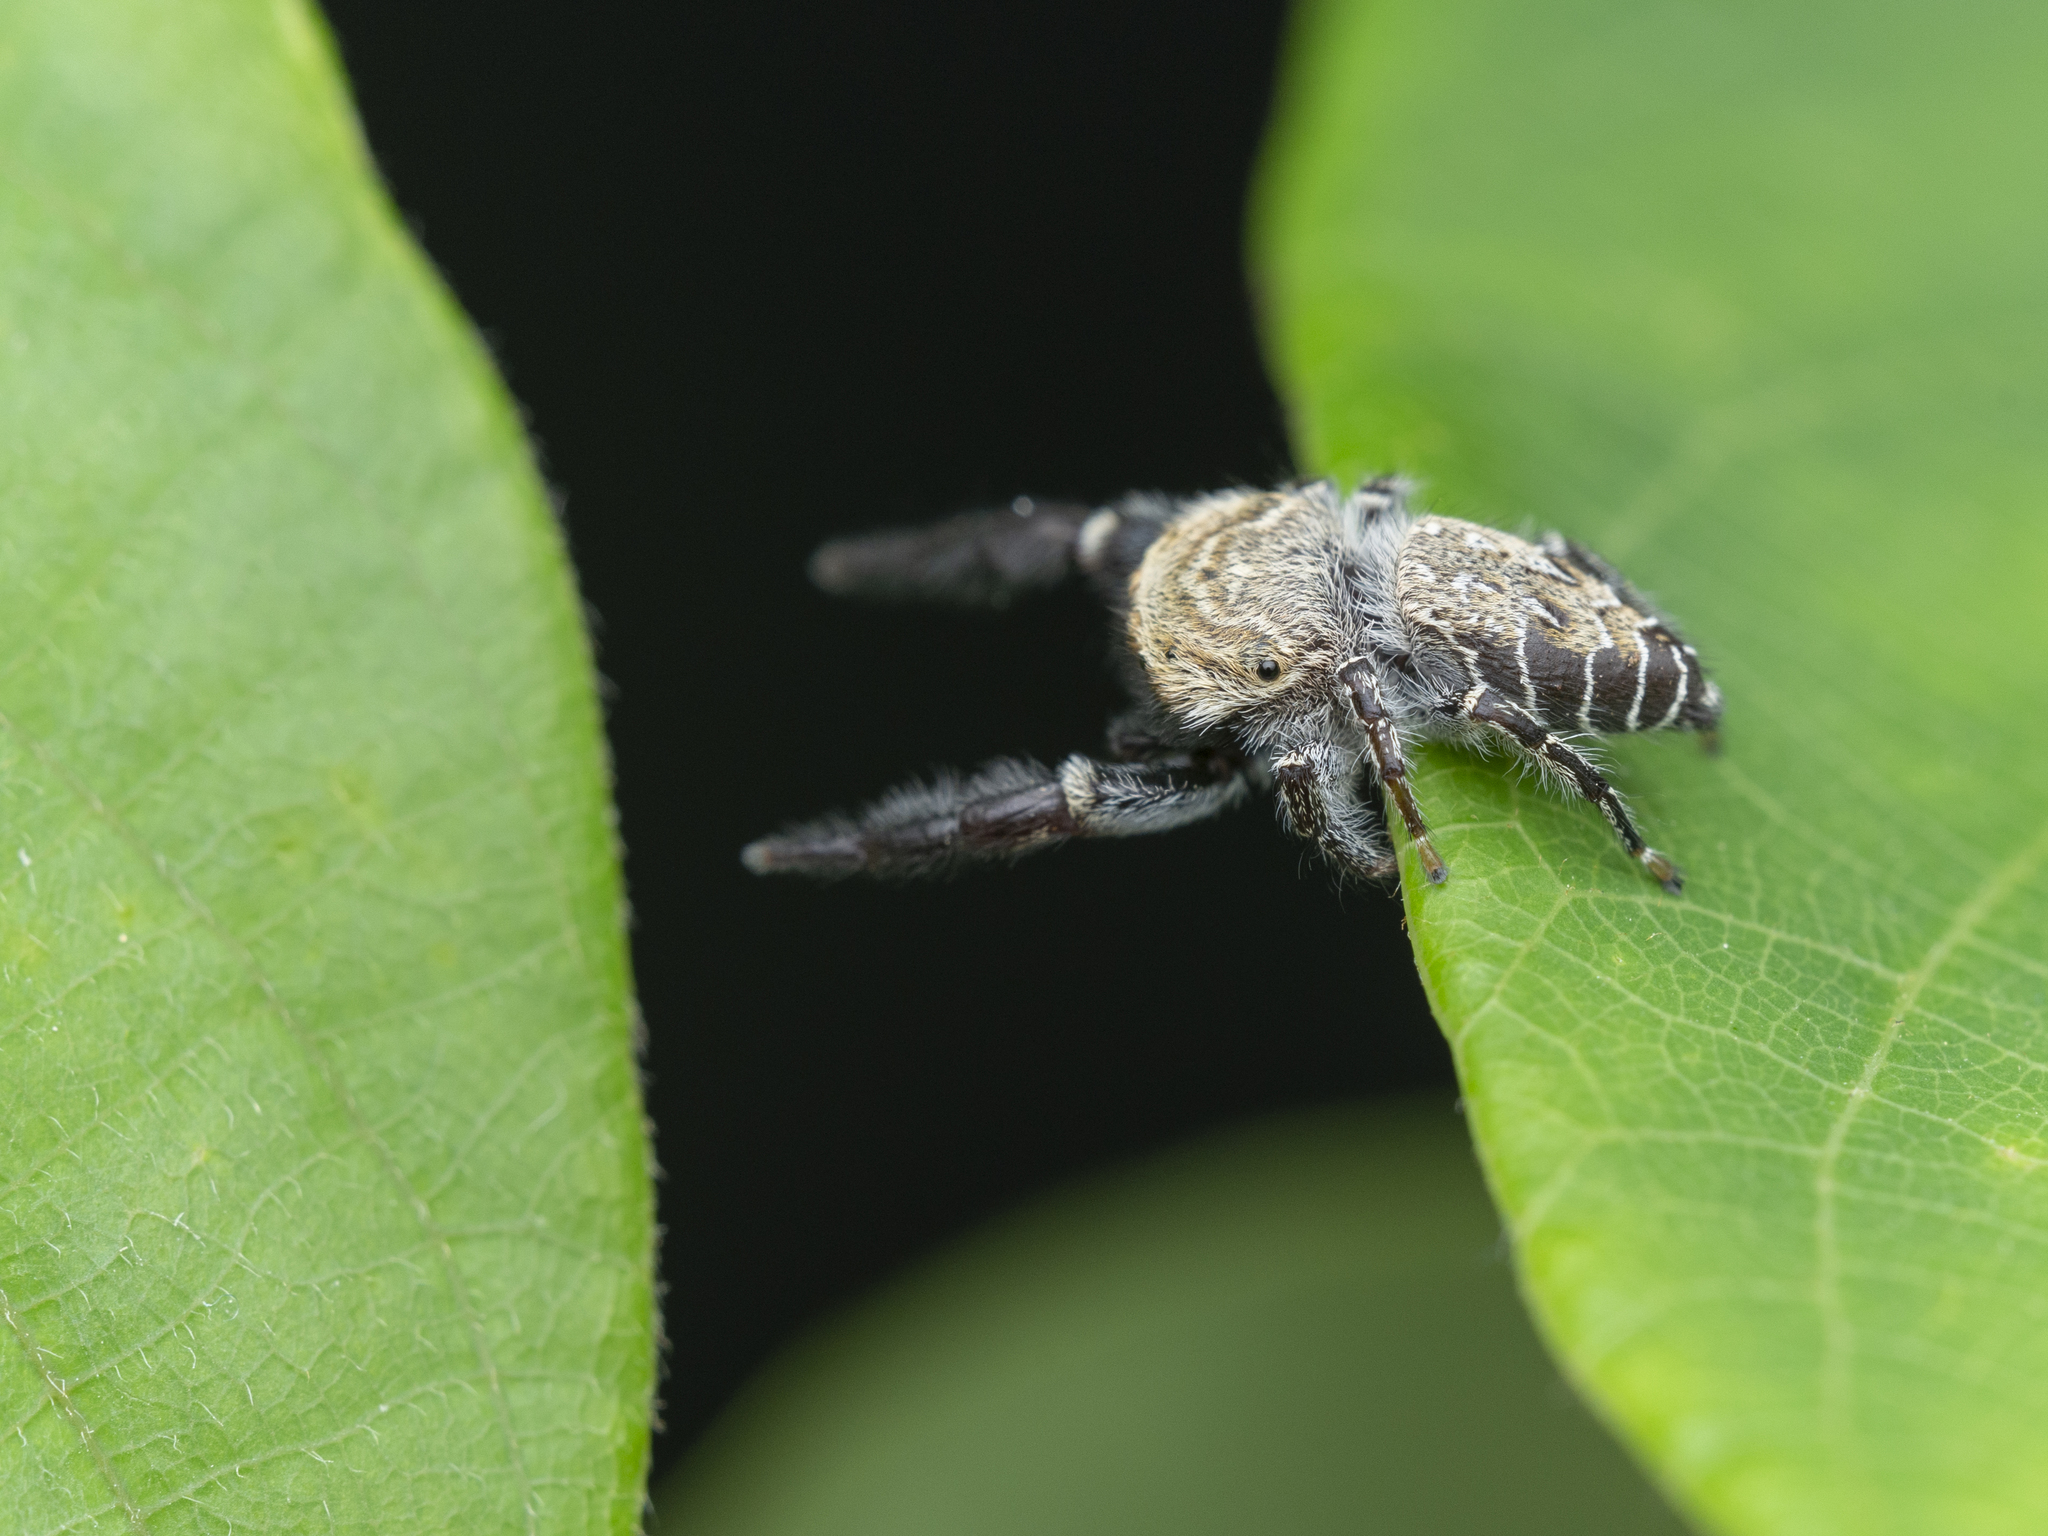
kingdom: Animalia
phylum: Arthropoda
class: Arachnida
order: Araneae
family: Salticidae
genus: Rhene
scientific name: Rhene rubrigera
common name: Jumping spider
